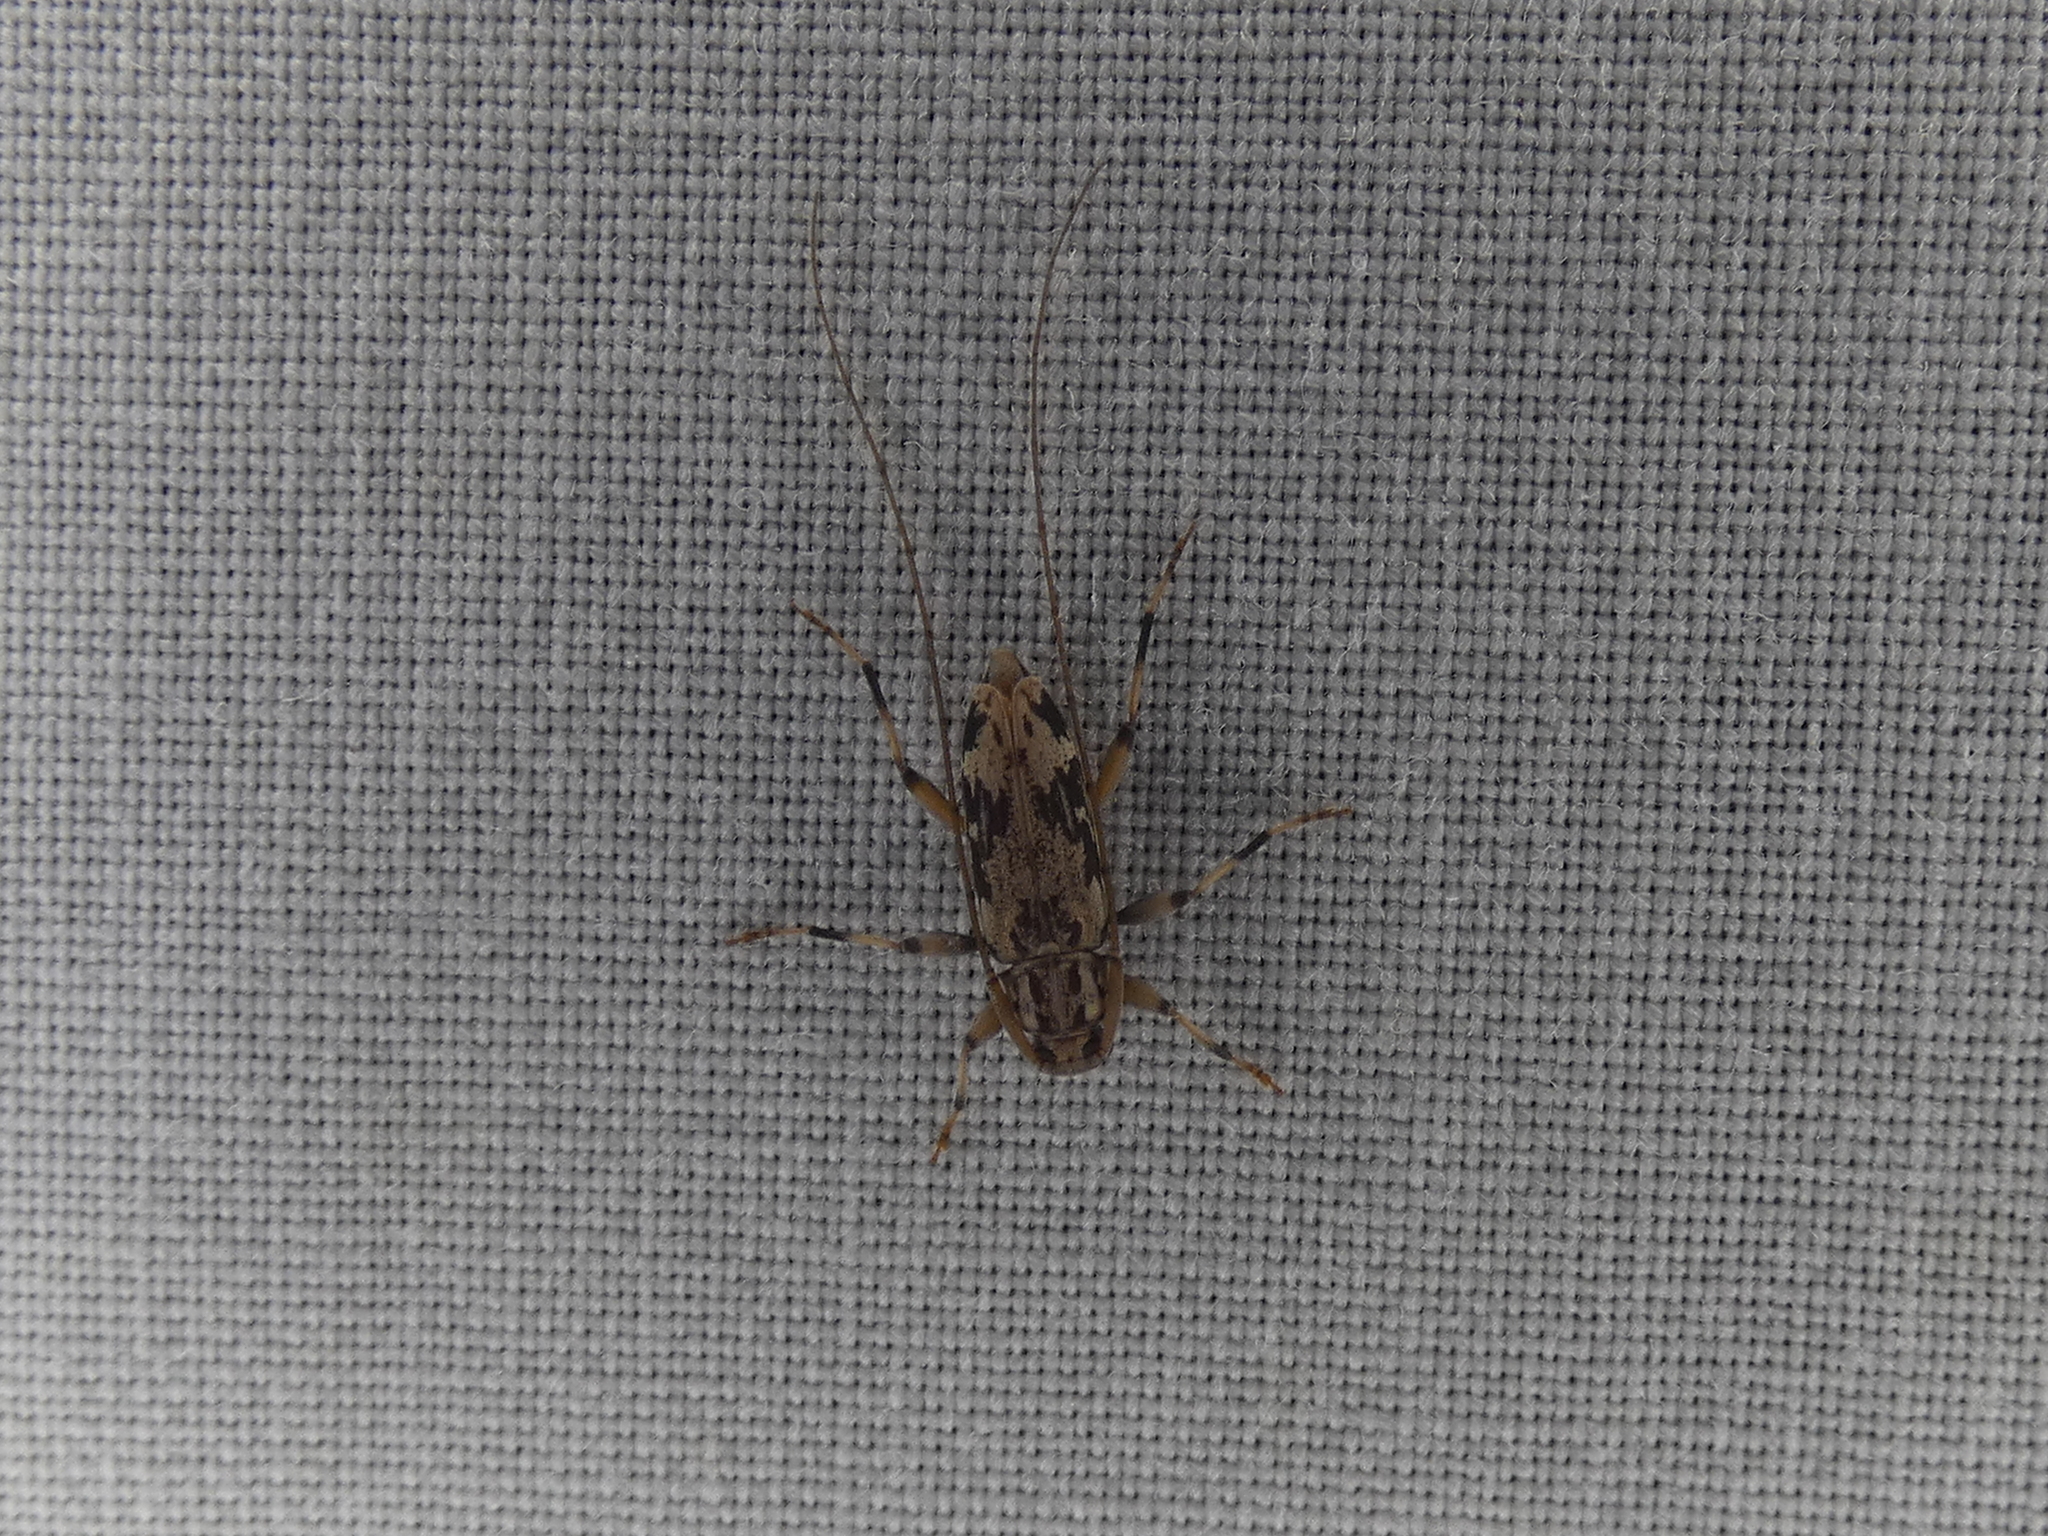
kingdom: Animalia
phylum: Arthropoda
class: Insecta
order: Coleoptera
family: Cerambycidae
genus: Lepturges
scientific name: Lepturges angulatus
